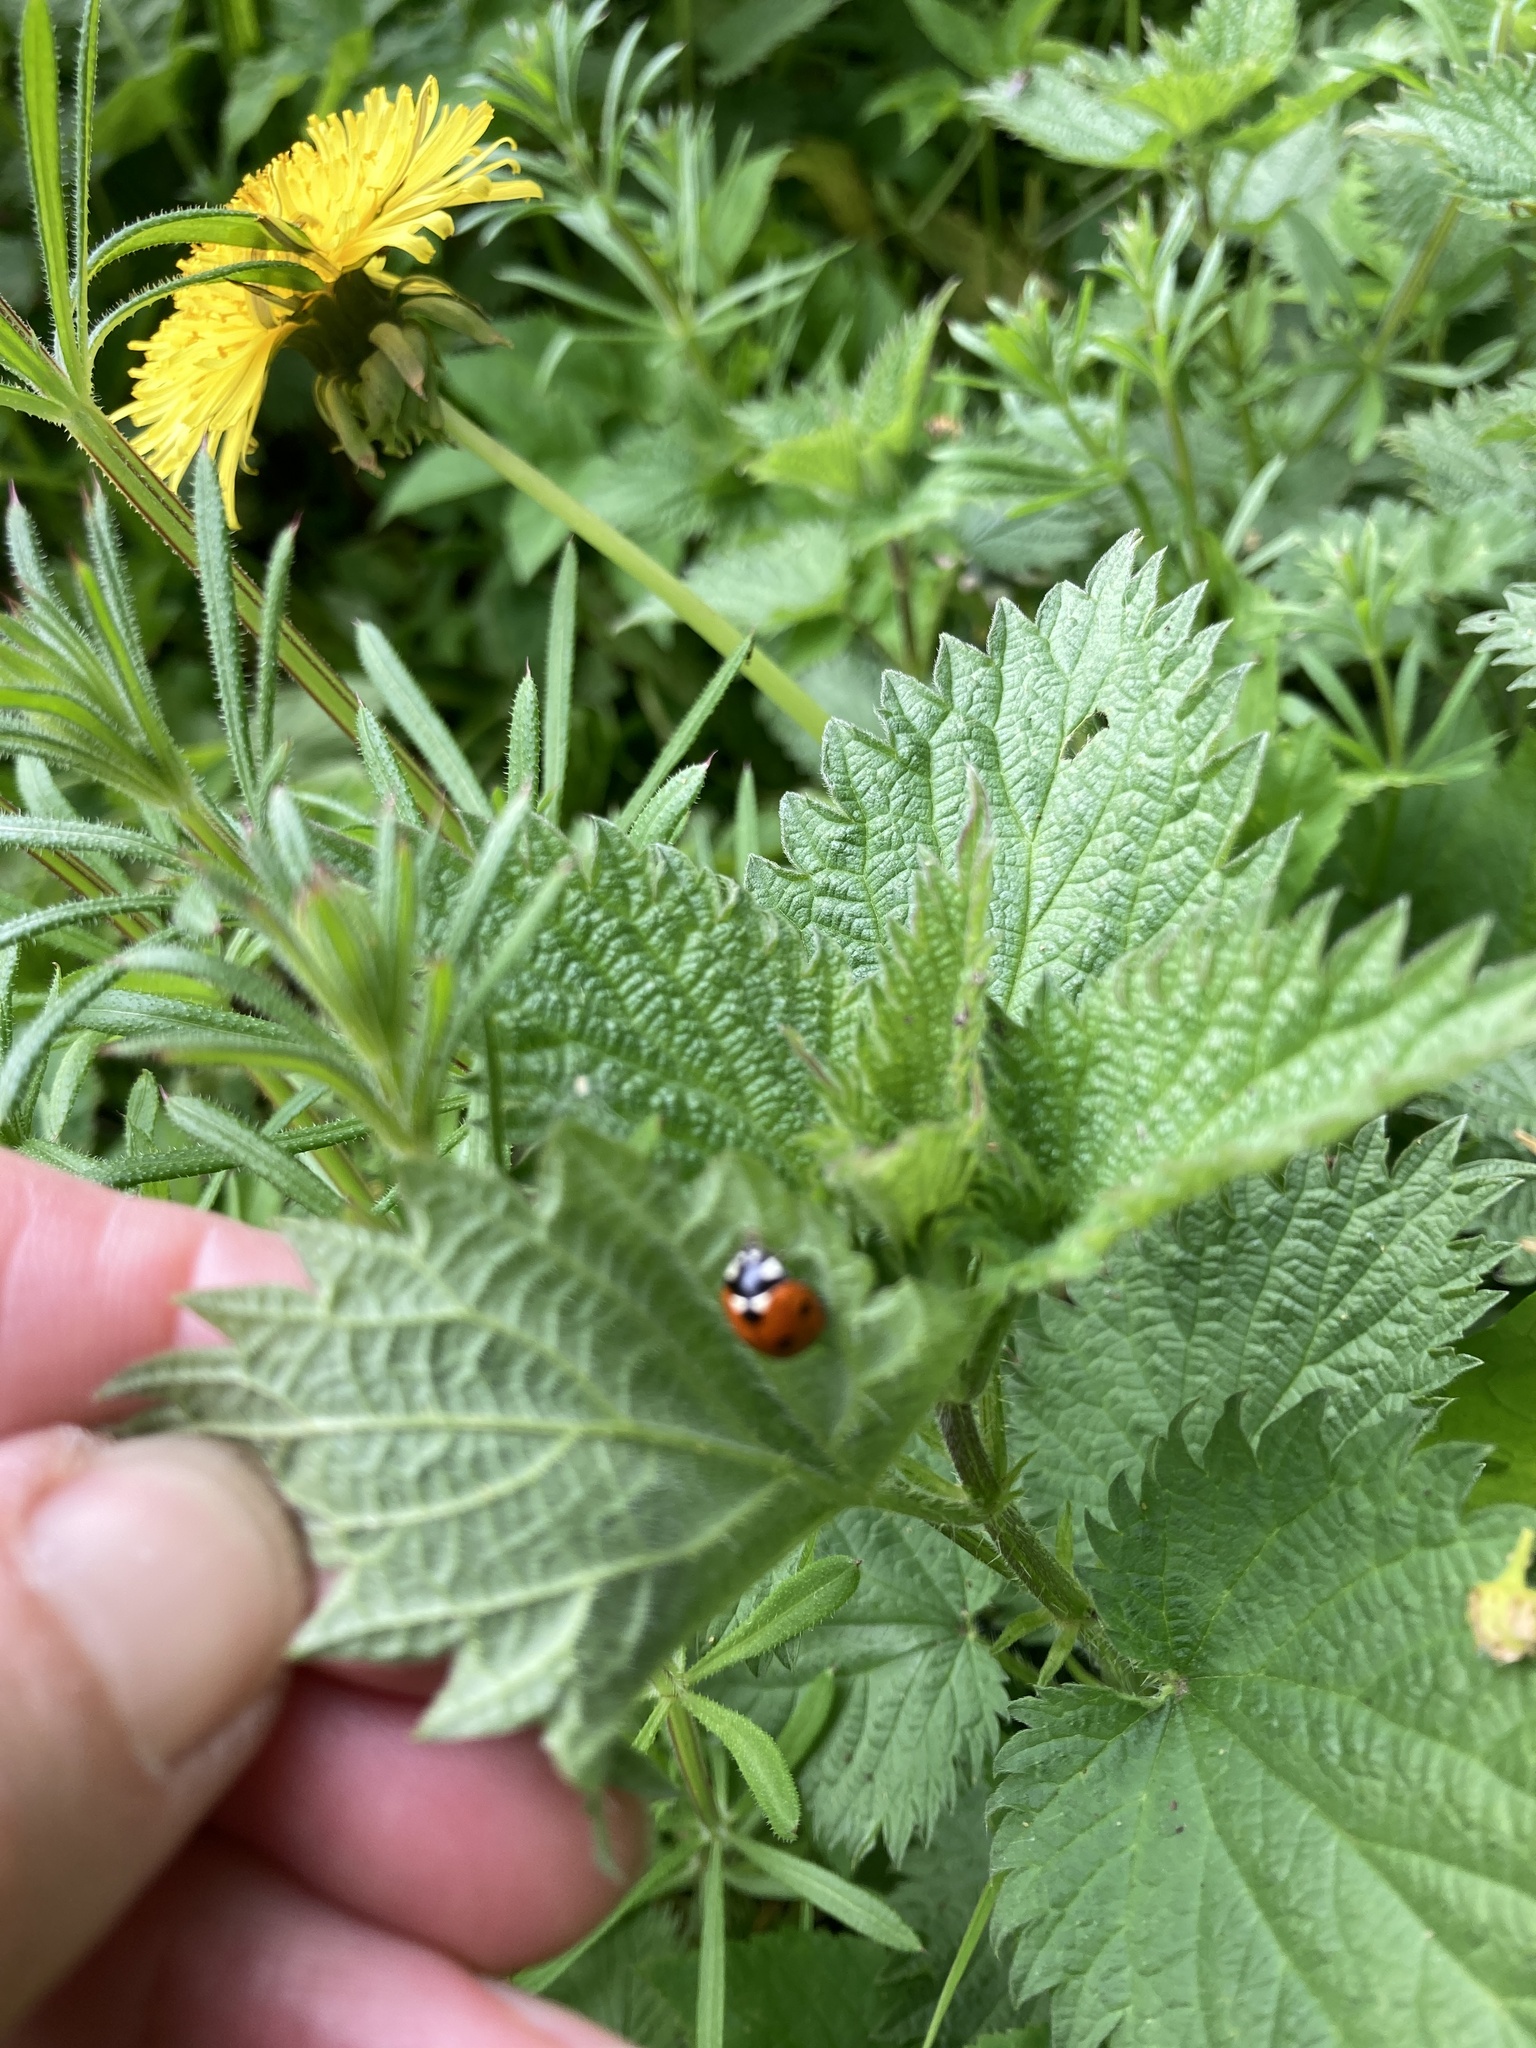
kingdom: Animalia
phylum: Arthropoda
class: Insecta
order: Coleoptera
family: Coccinellidae
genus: Coccinella
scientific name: Coccinella septempunctata
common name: Sevenspotted lady beetle
